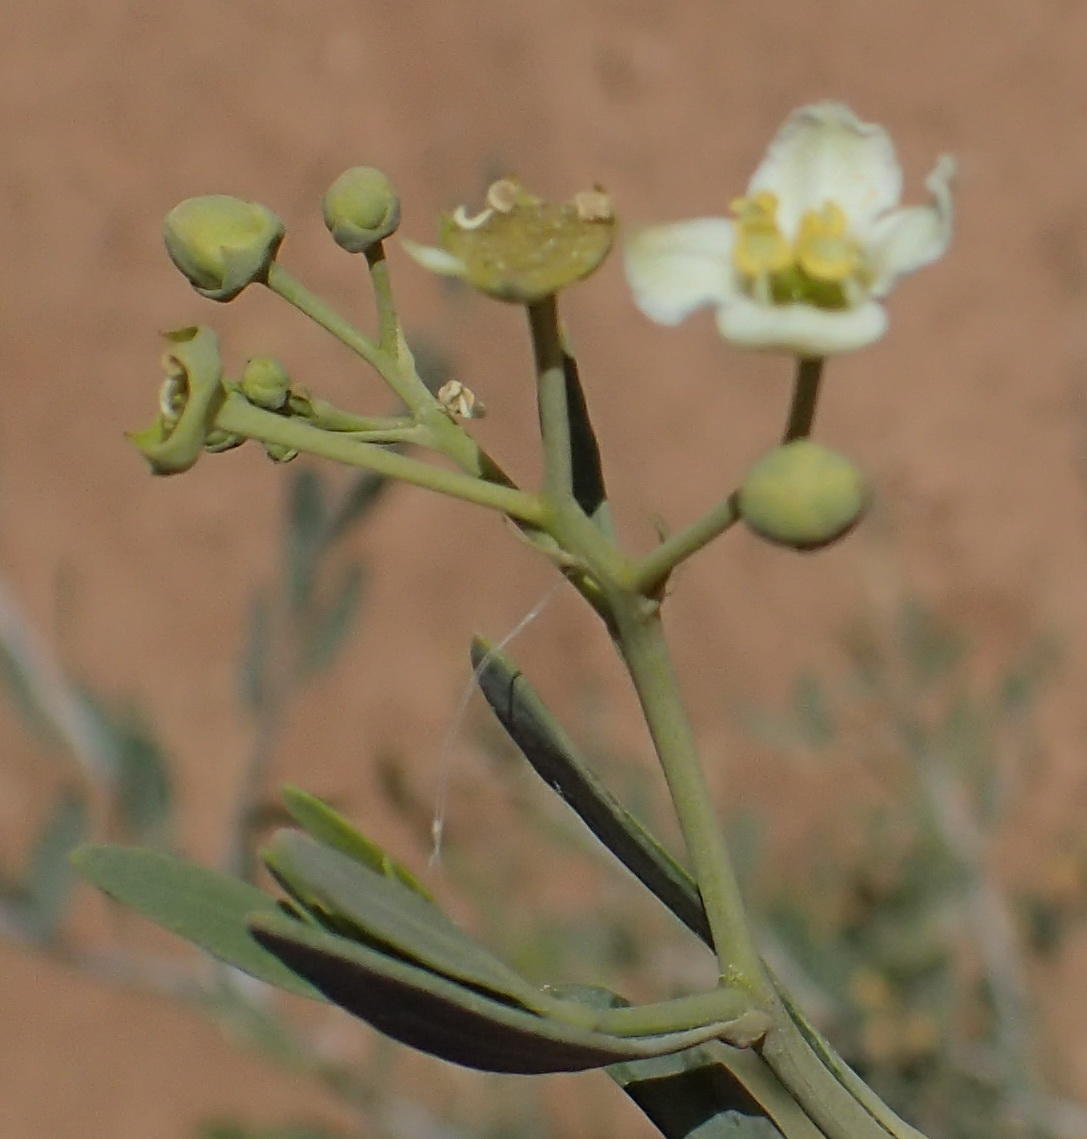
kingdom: Plantae
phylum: Tracheophyta
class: Magnoliopsida
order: Solanales
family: Montiniaceae
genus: Montinia
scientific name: Montinia caryophyllacea
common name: Wild clove-bush
